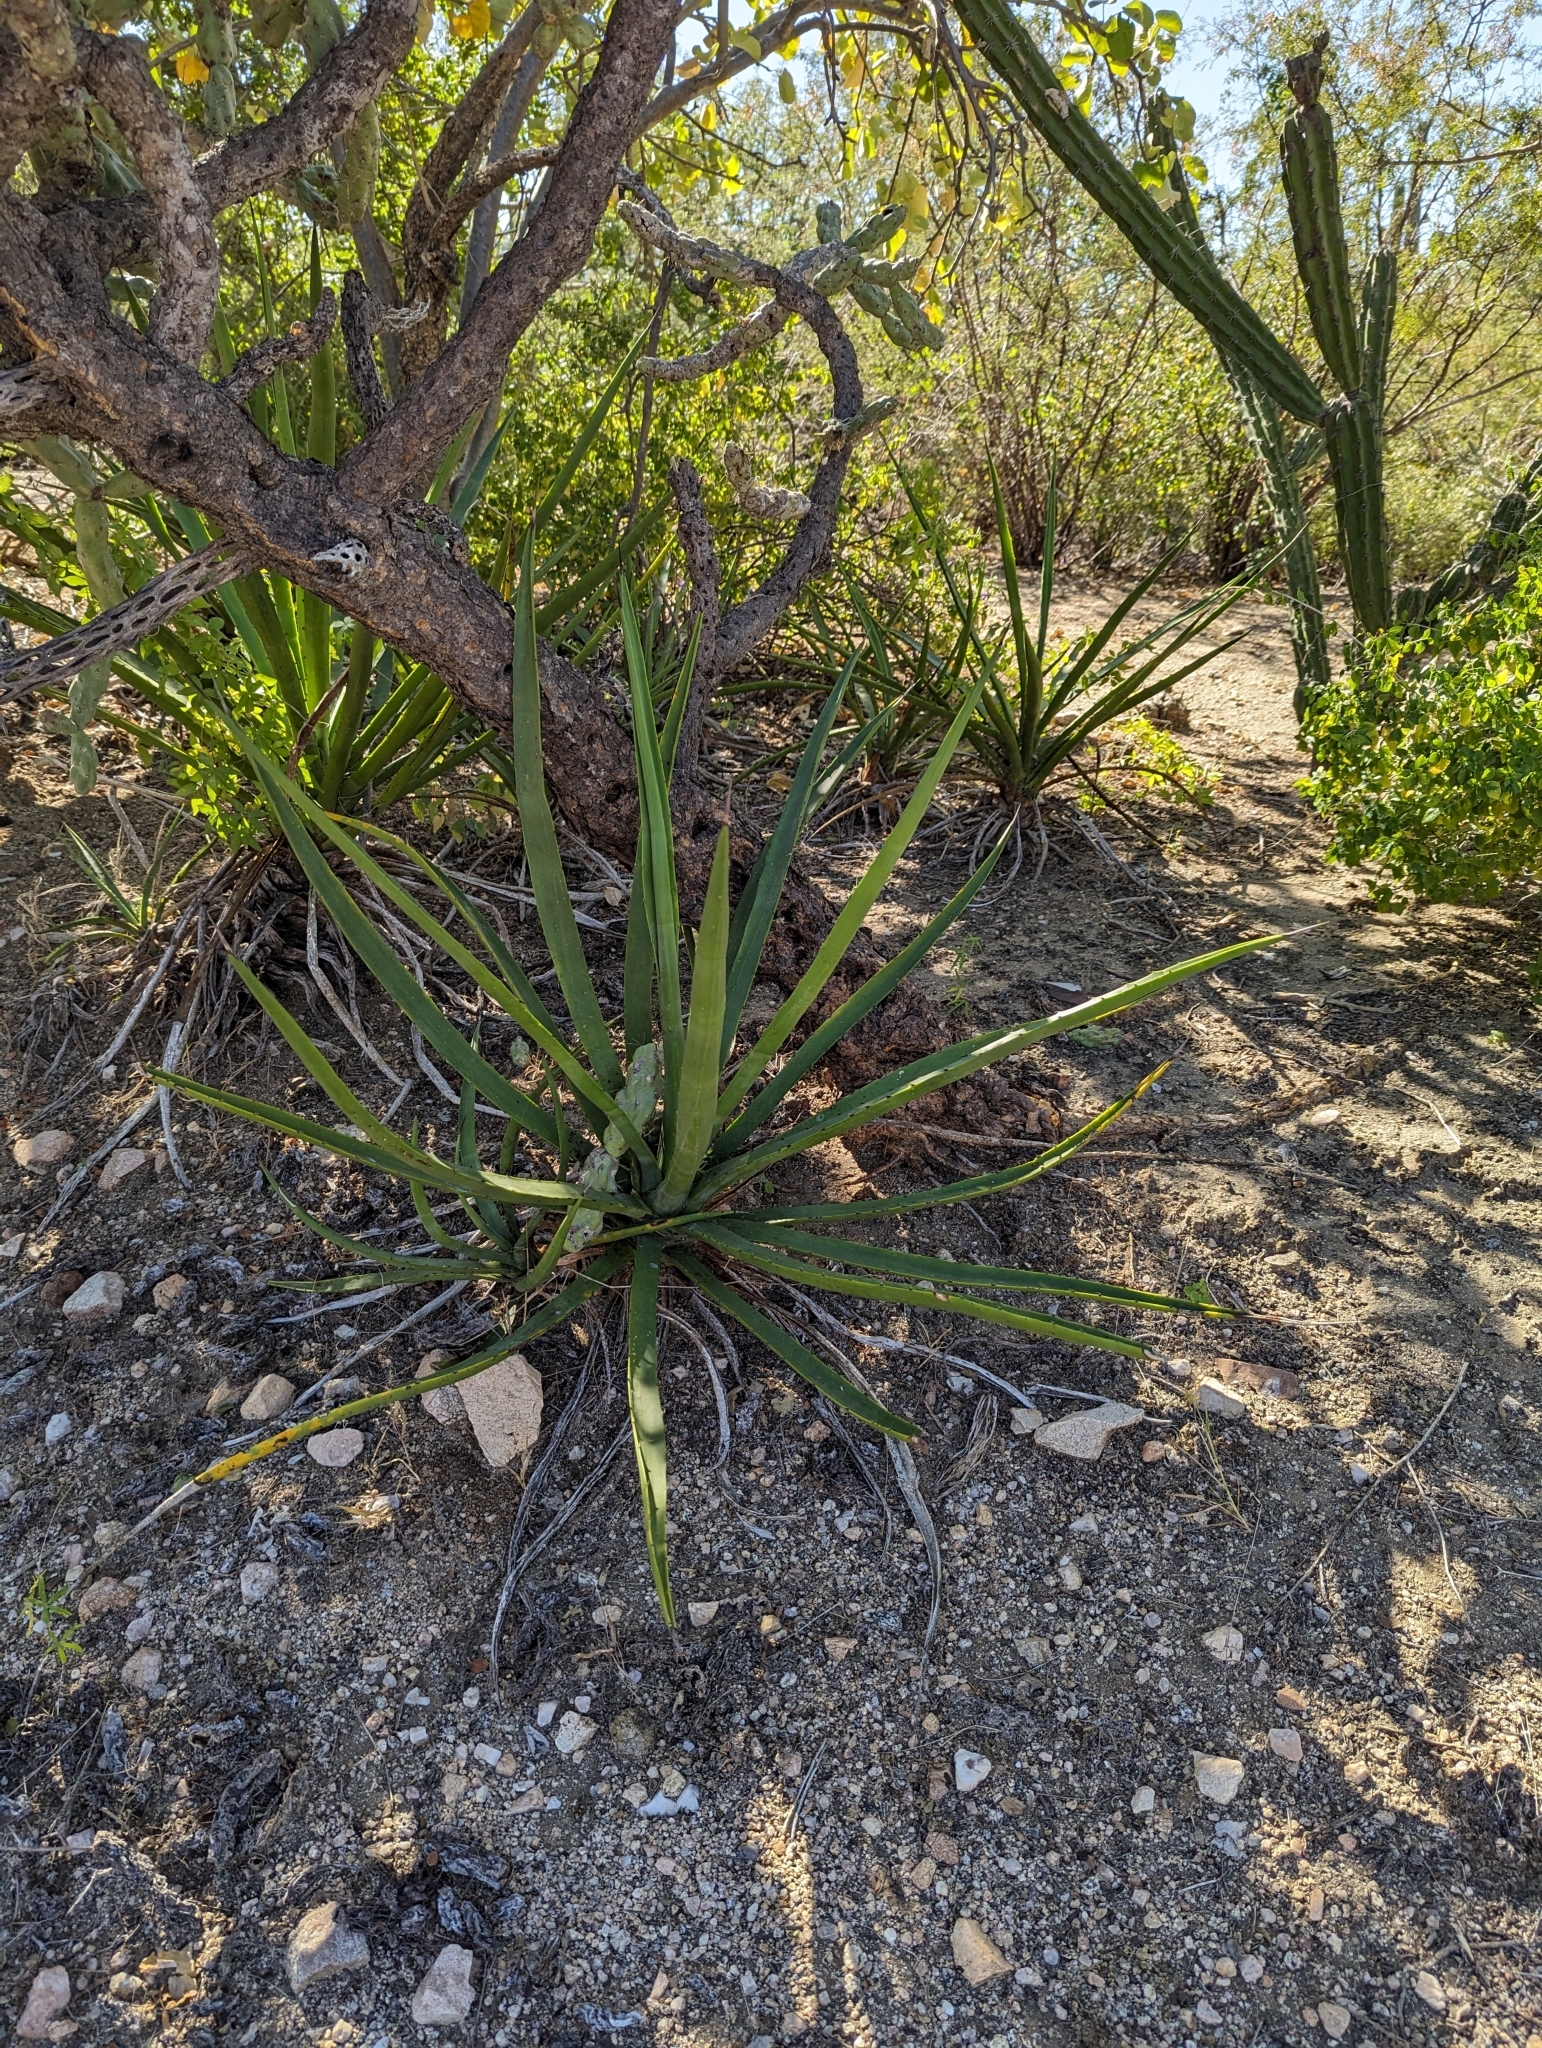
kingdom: Plantae
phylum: Tracheophyta
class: Liliopsida
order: Asparagales
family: Asparagaceae
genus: Agave
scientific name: Agave datylio
